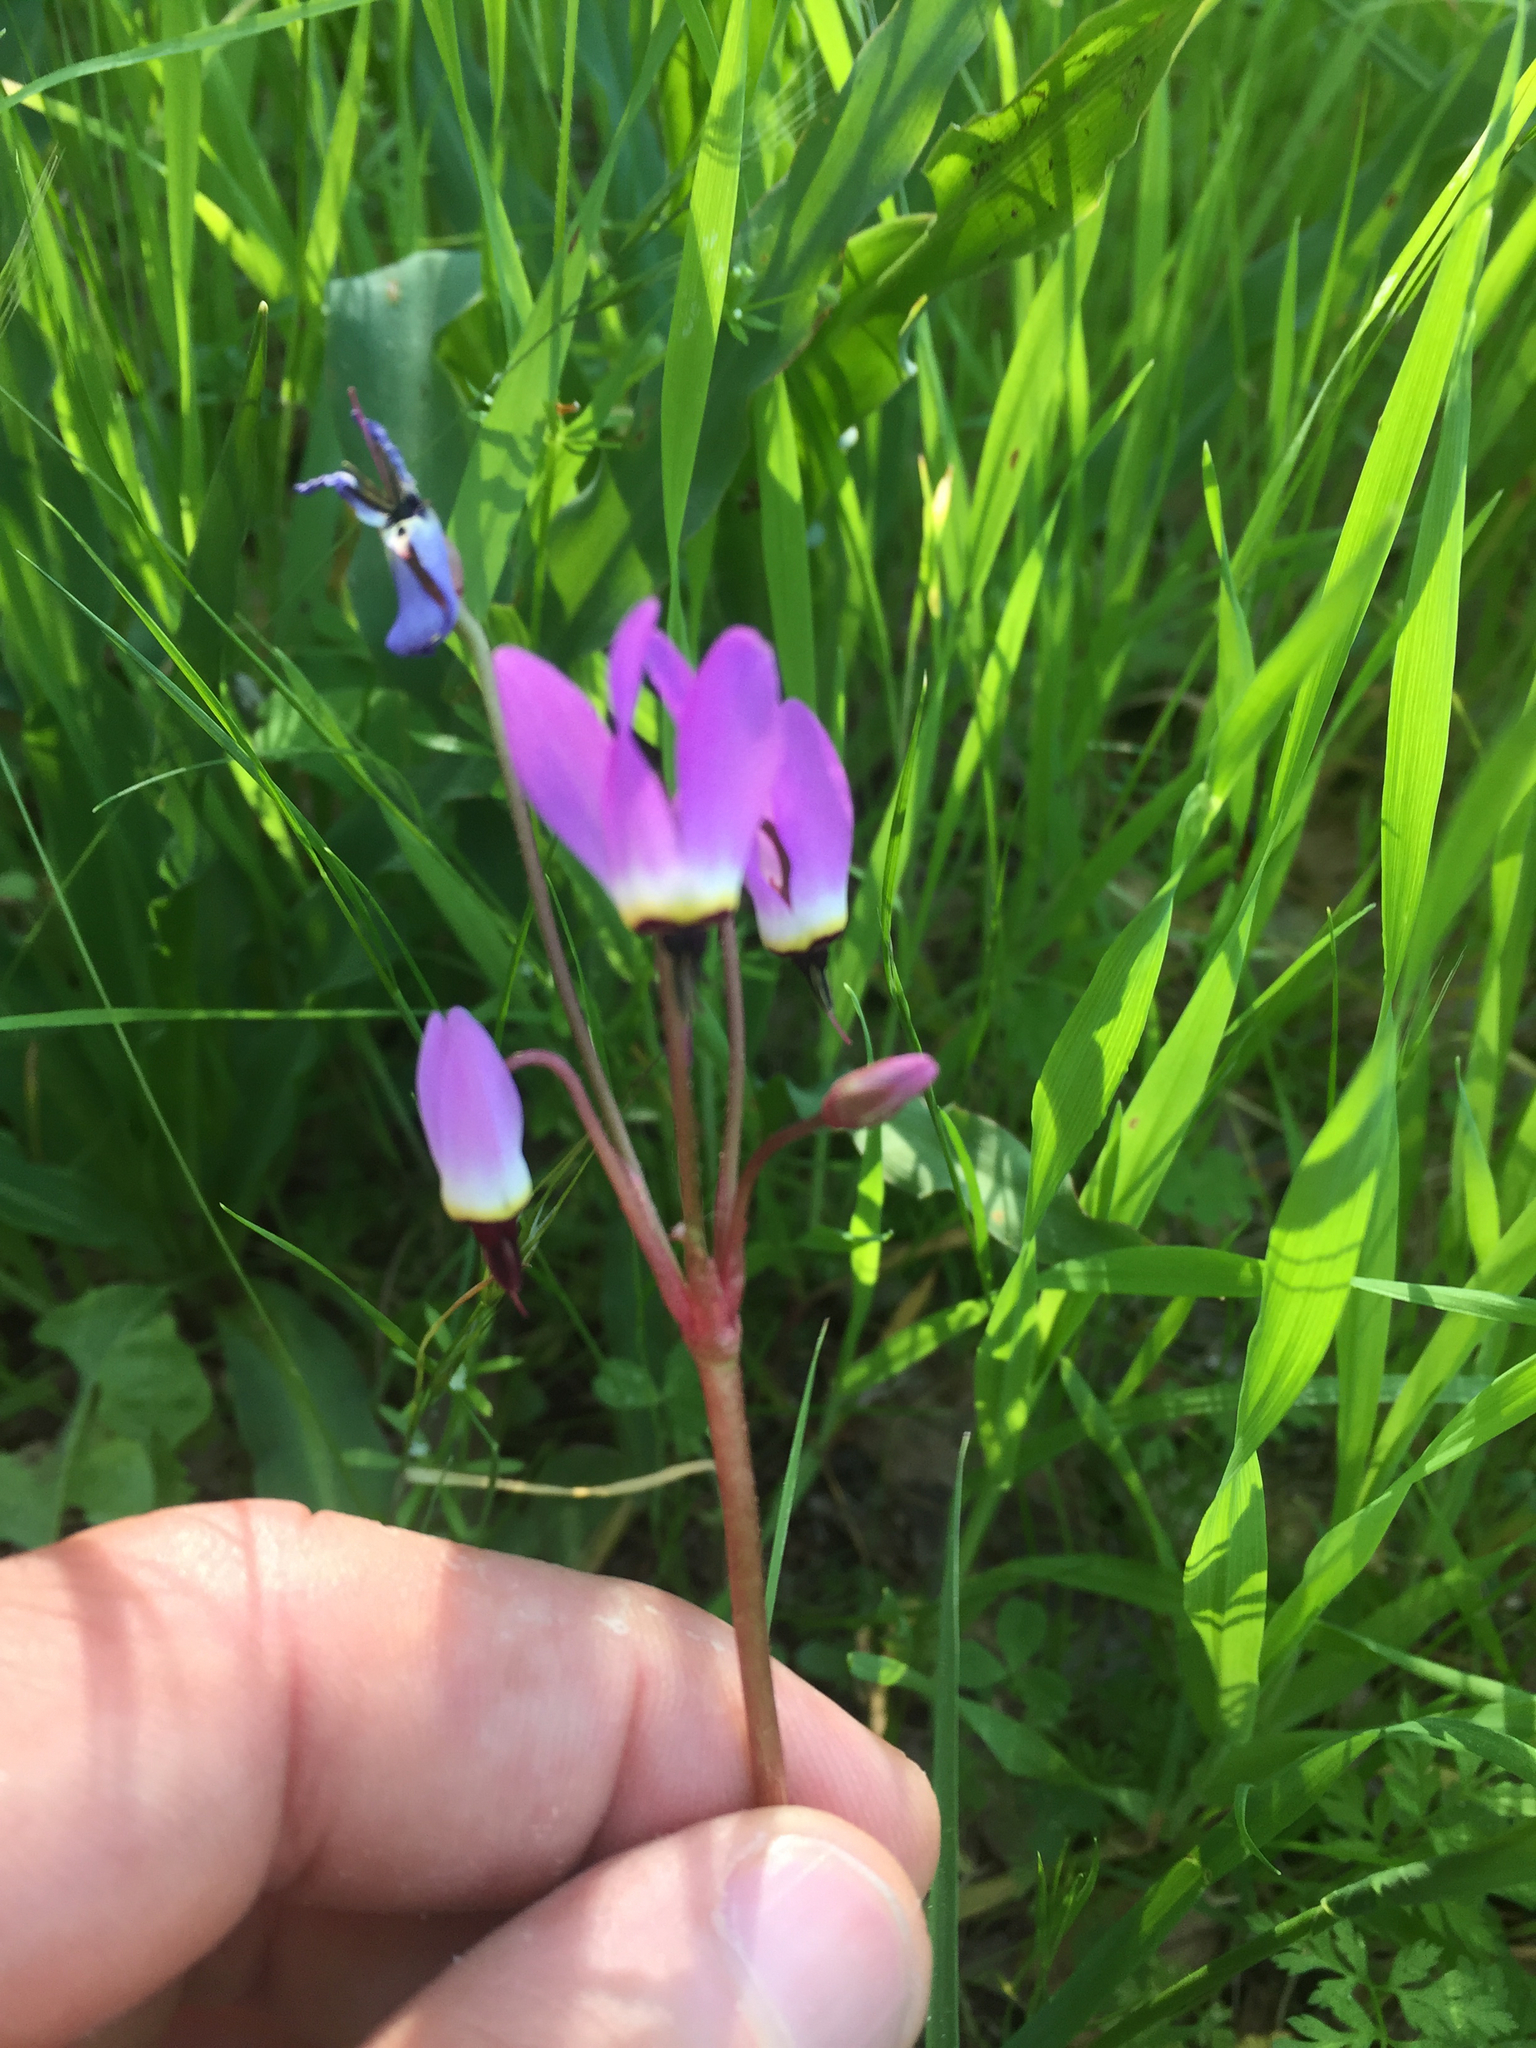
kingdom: Plantae
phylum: Tracheophyta
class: Magnoliopsida
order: Ericales
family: Primulaceae
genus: Dodecatheon
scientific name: Dodecatheon hendersonii
